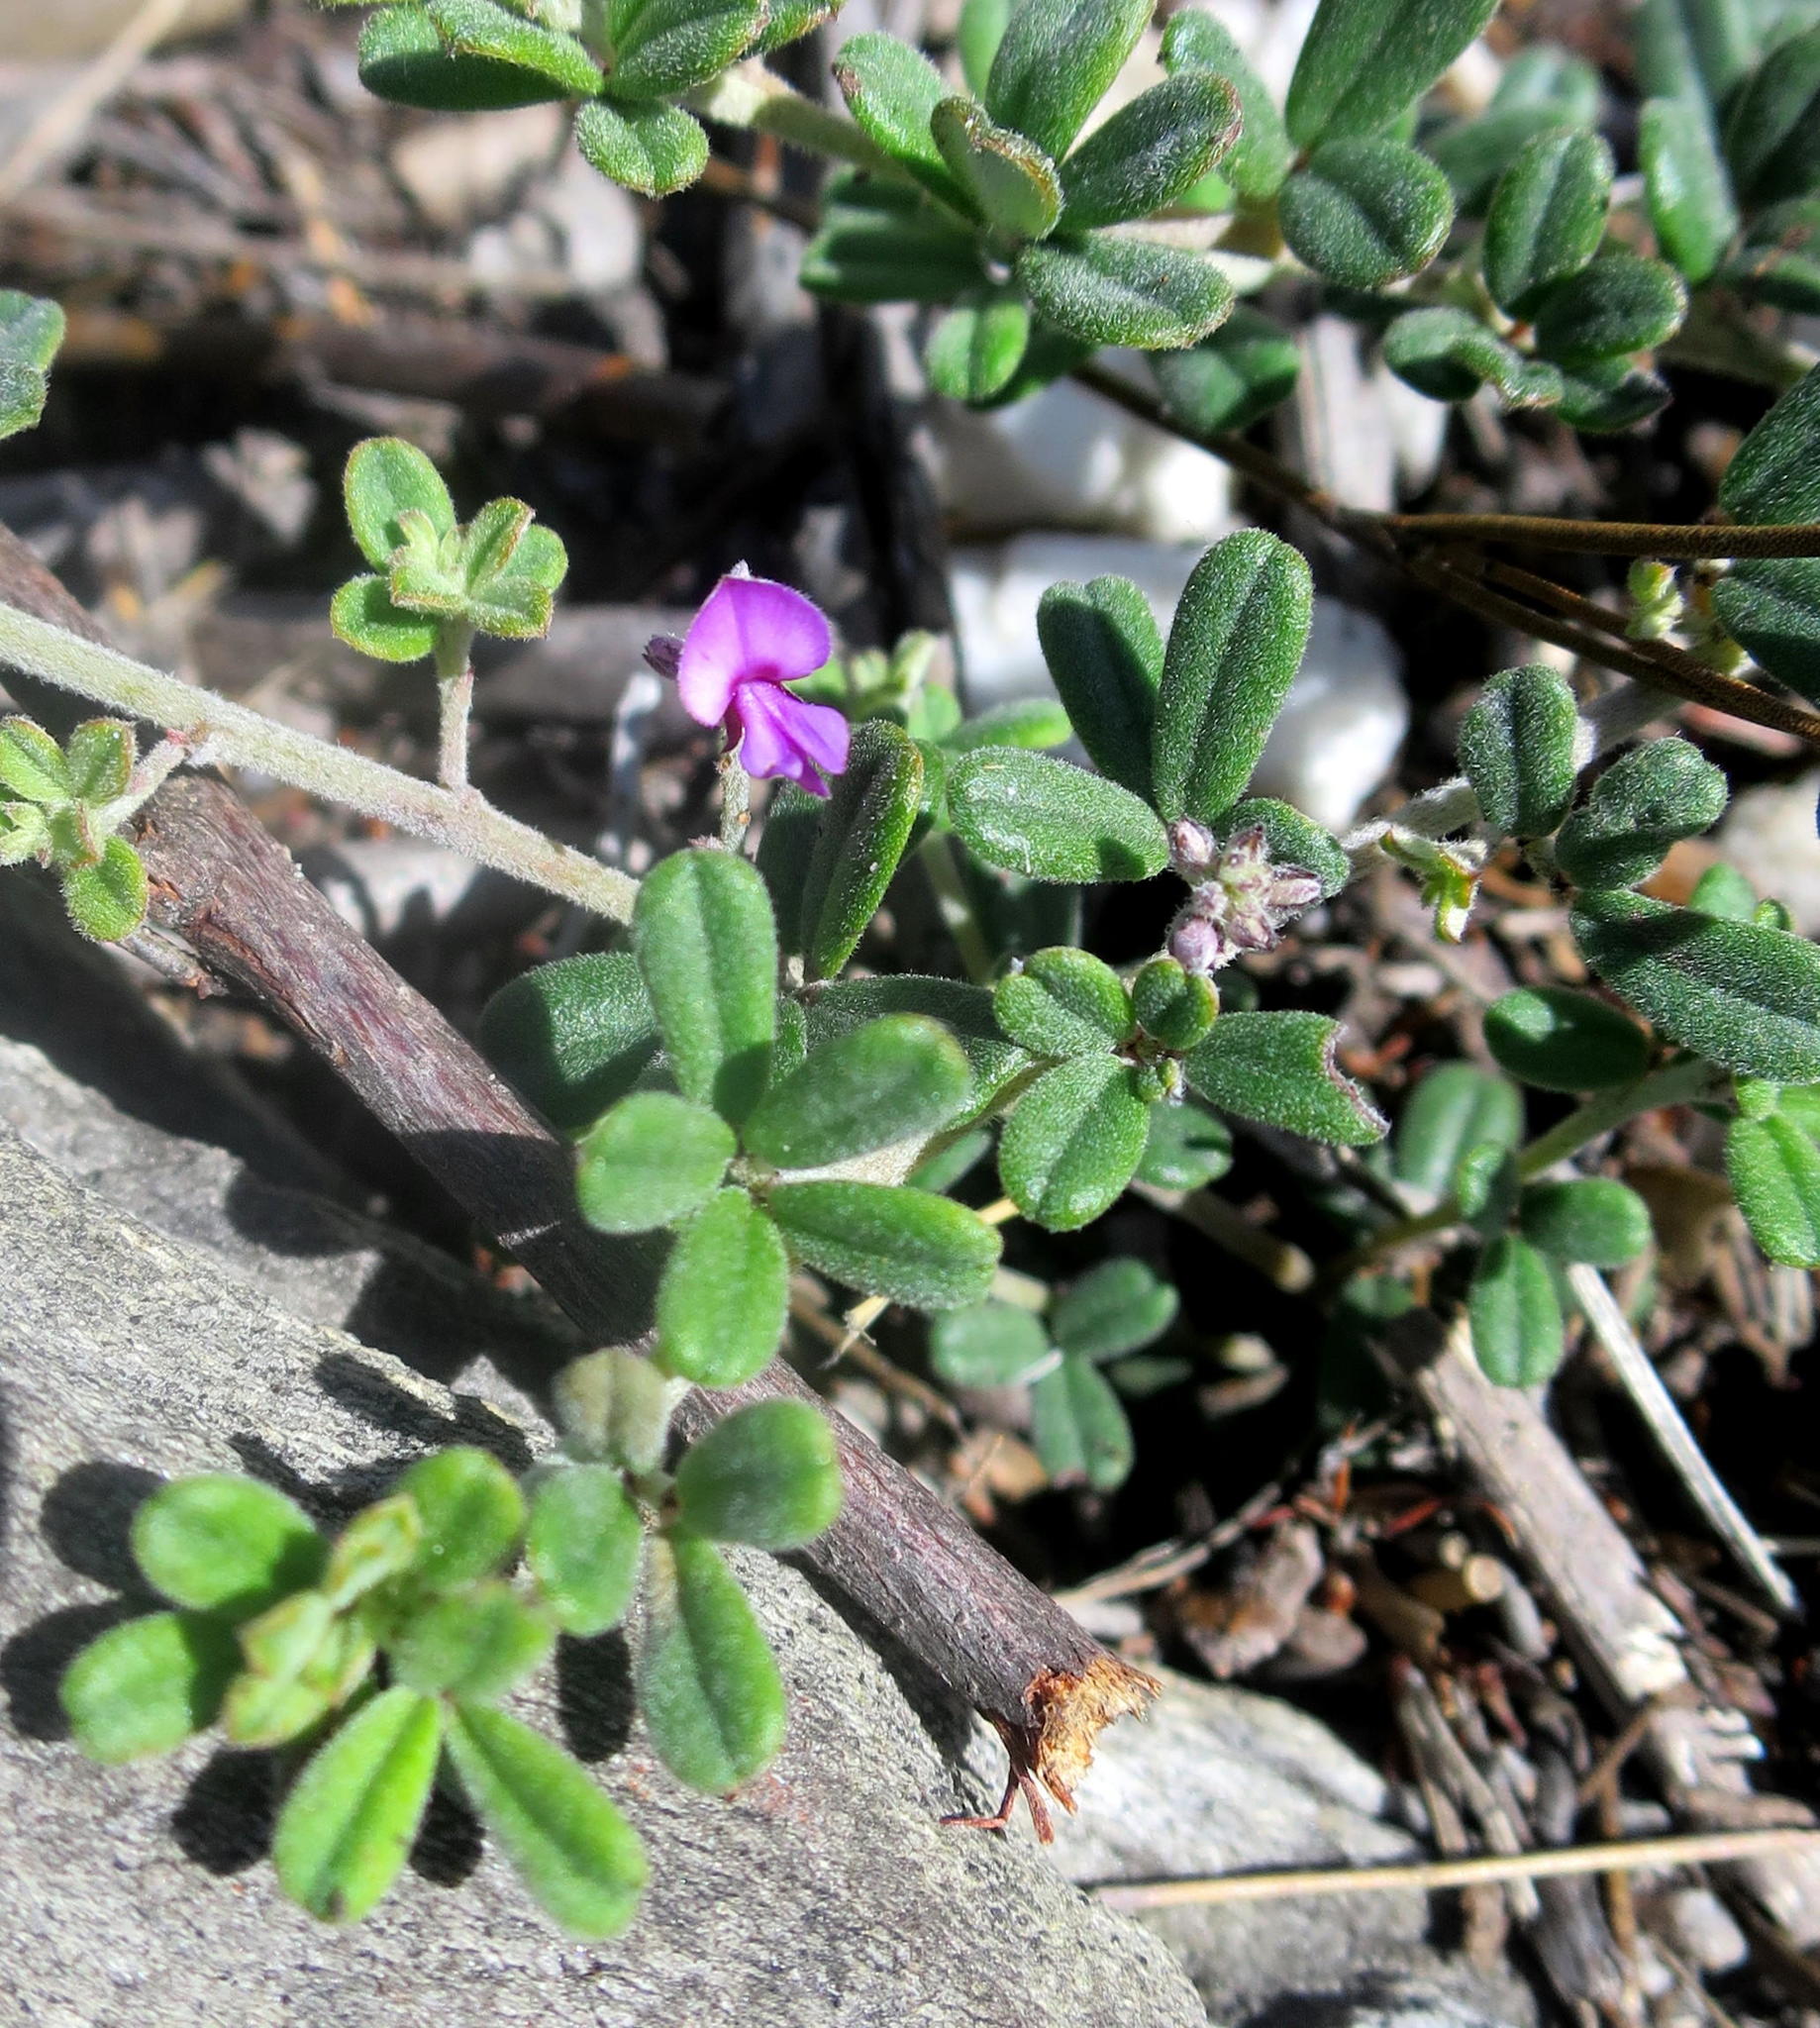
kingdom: Plantae
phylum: Tracheophyta
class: Magnoliopsida
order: Fabales
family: Fabaceae
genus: Indigofera
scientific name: Indigofera
